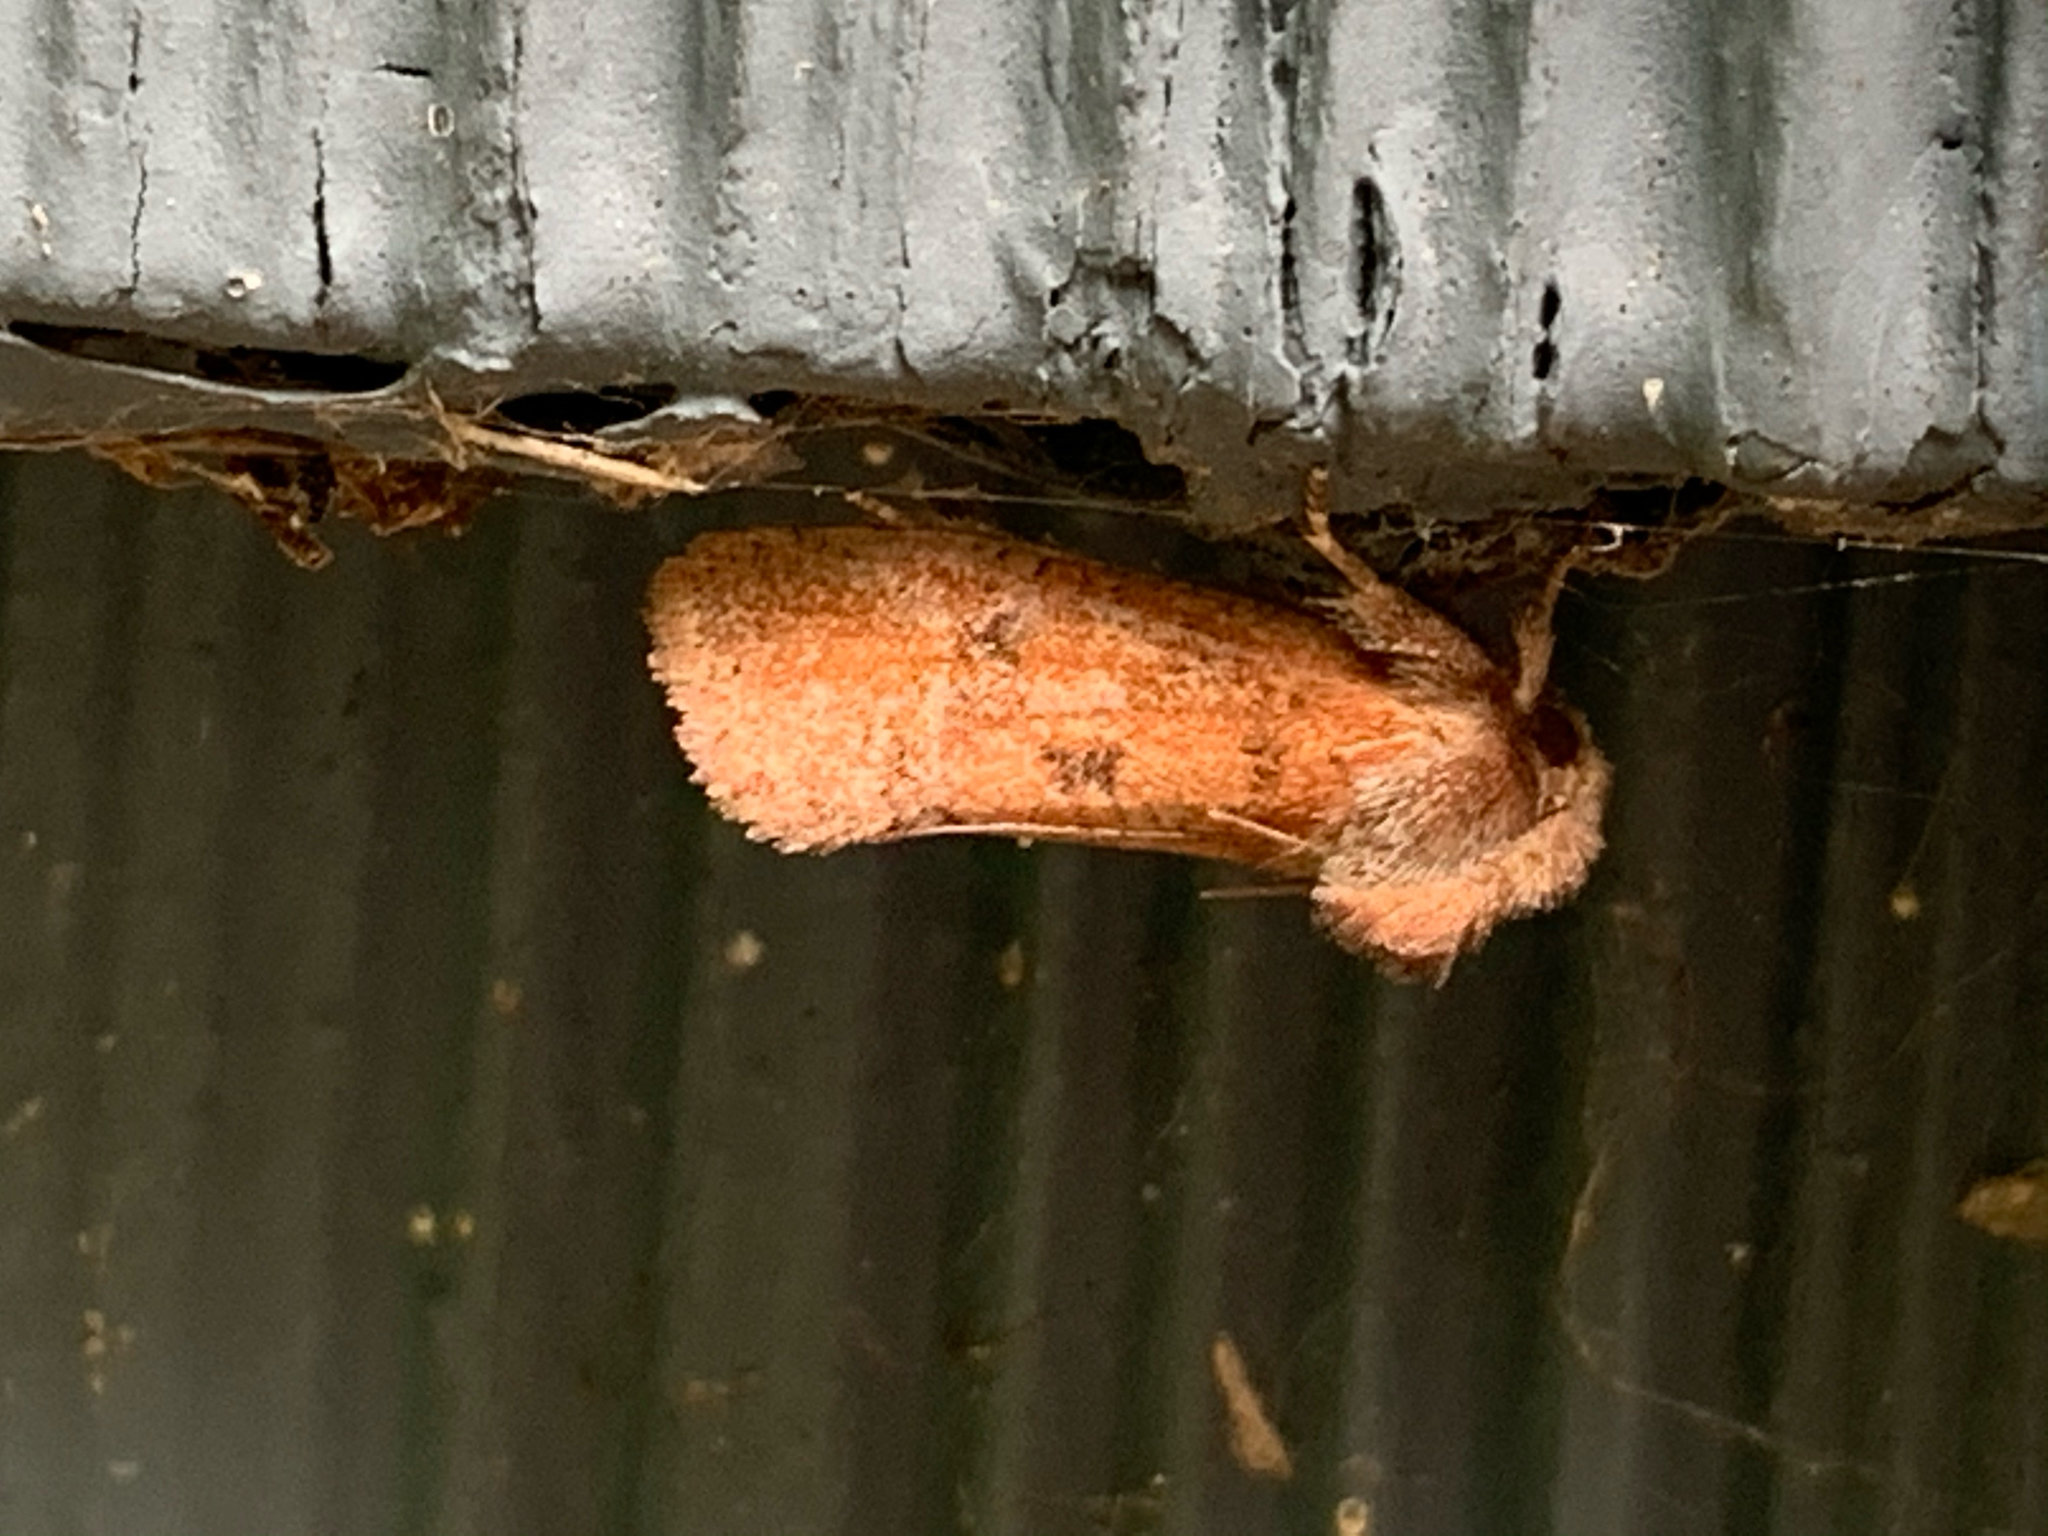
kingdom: Animalia
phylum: Arthropoda
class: Insecta
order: Lepidoptera
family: Tineidae
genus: Acrolophus
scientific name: Acrolophus plumifrontella
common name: Eastern grass tubeworm moth
